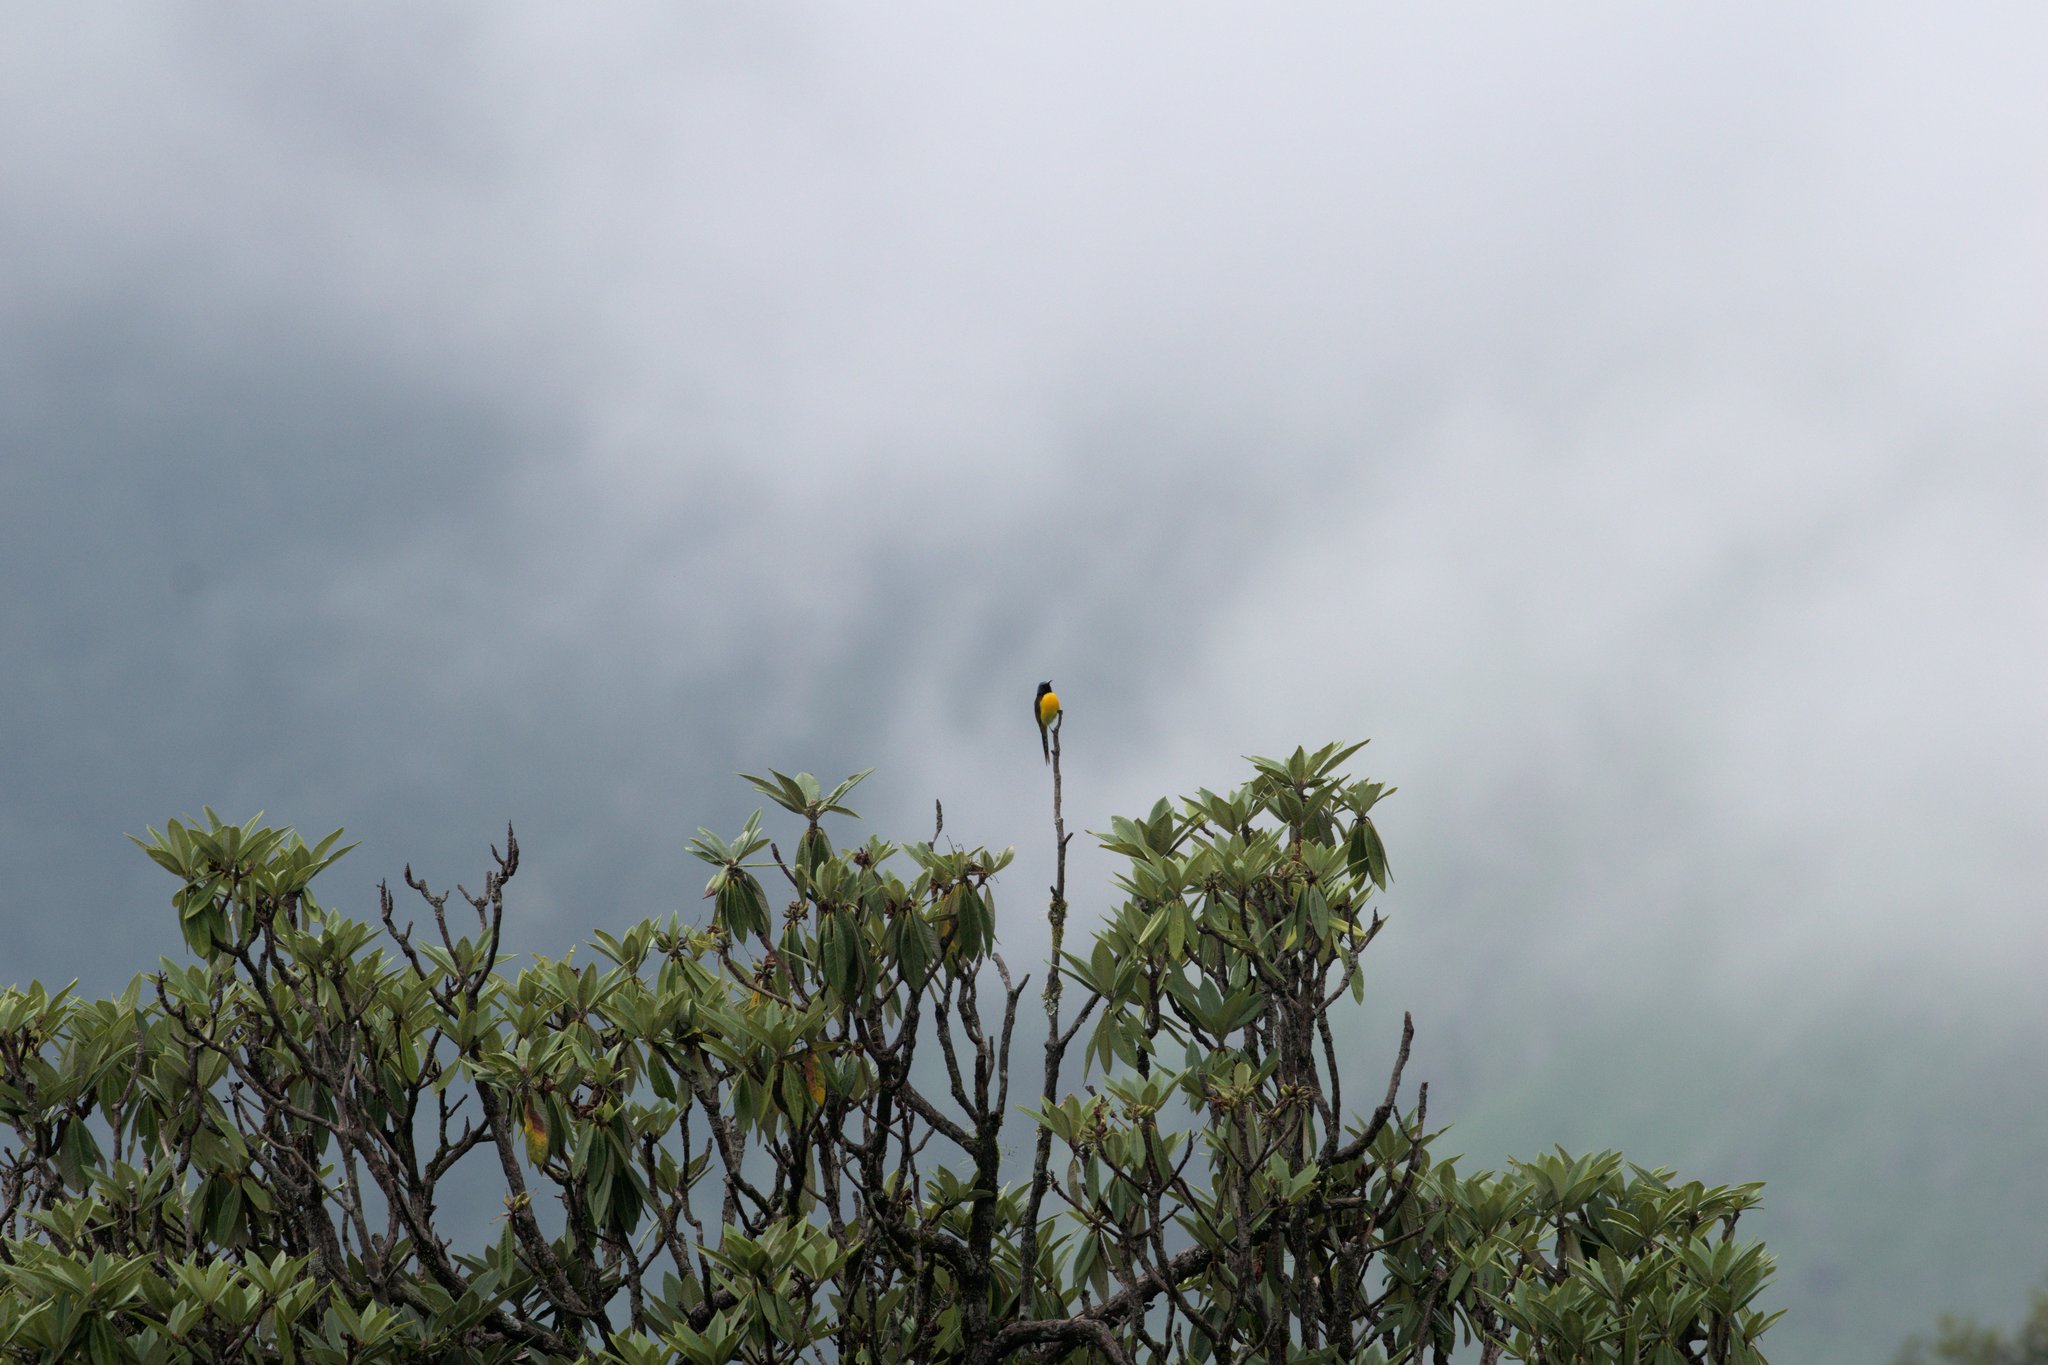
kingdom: Animalia
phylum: Chordata
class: Aves
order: Passeriformes
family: Nectariniidae
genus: Aethopyga
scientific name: Aethopyga nipalensis
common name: Green-tailed sunbird
